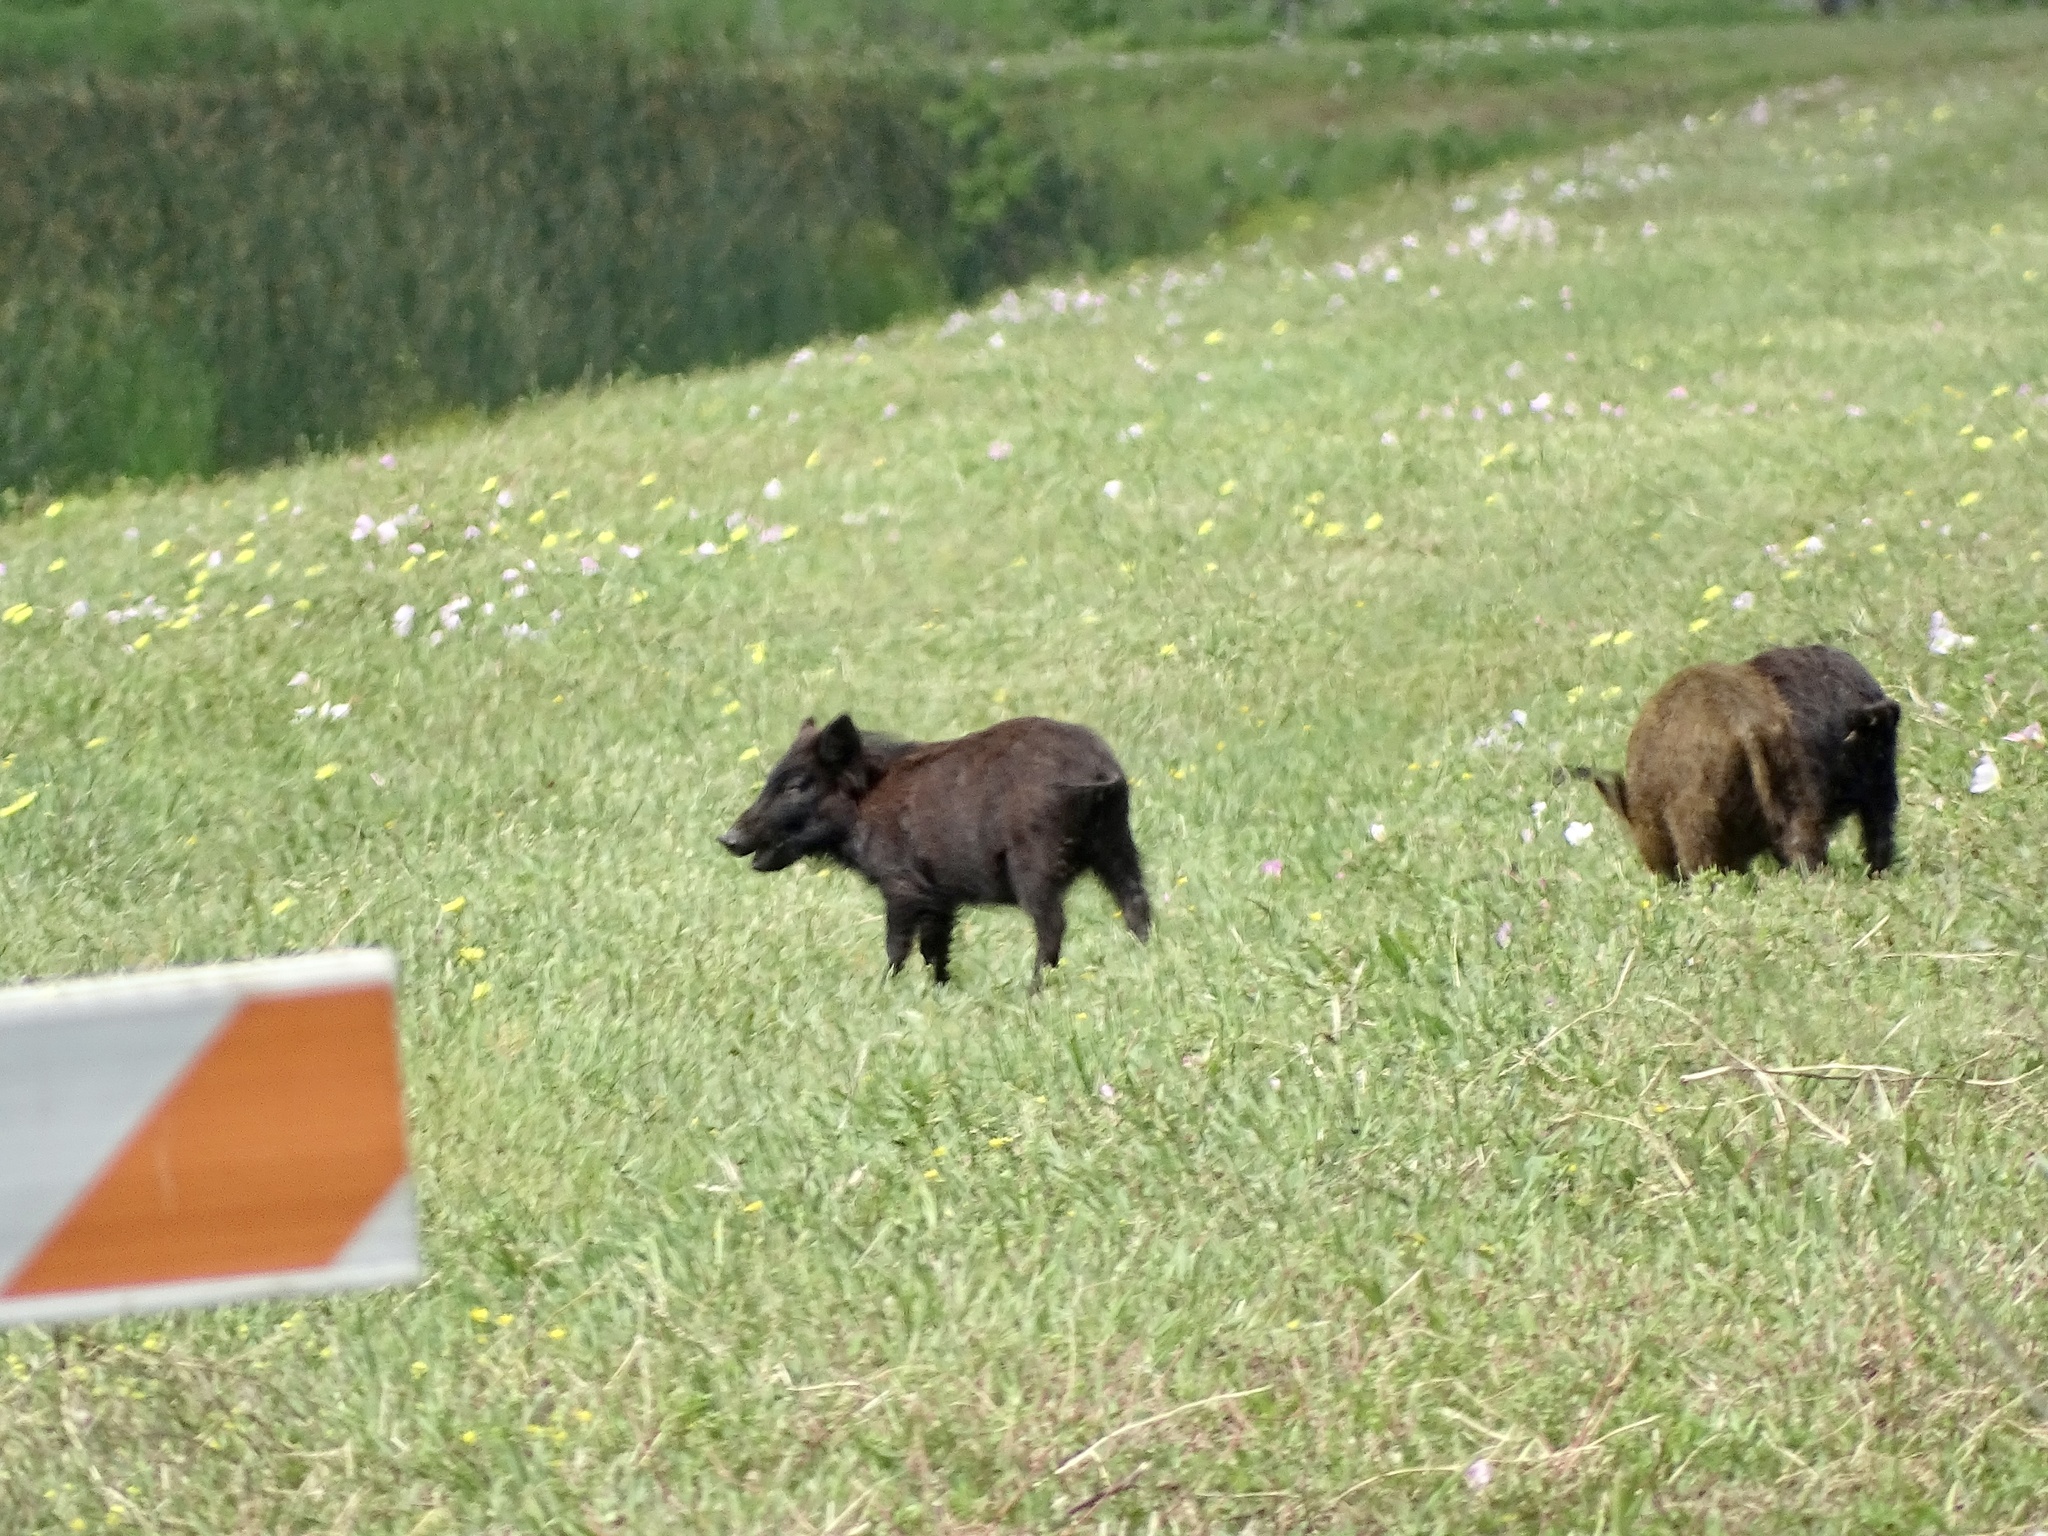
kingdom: Animalia
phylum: Chordata
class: Mammalia
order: Artiodactyla
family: Suidae
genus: Sus
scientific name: Sus scrofa
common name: Wild boar
